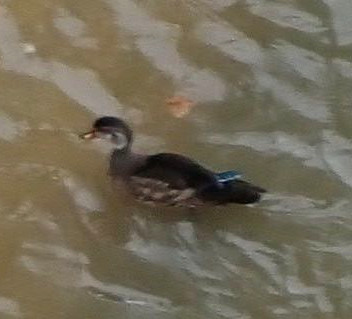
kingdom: Animalia
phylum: Chordata
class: Aves
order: Anseriformes
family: Anatidae
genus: Aix
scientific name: Aix sponsa
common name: Wood duck
